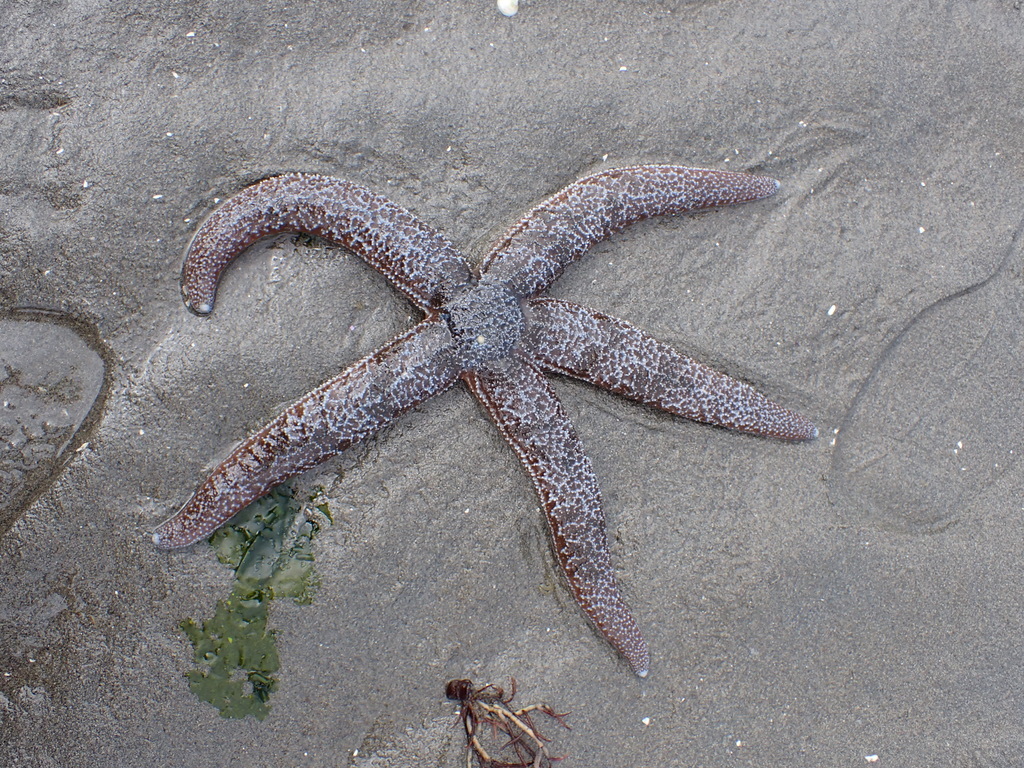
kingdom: Animalia
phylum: Echinodermata
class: Asteroidea
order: Forcipulatida
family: Asteriidae
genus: Evasterias
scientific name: Evasterias troschelii
